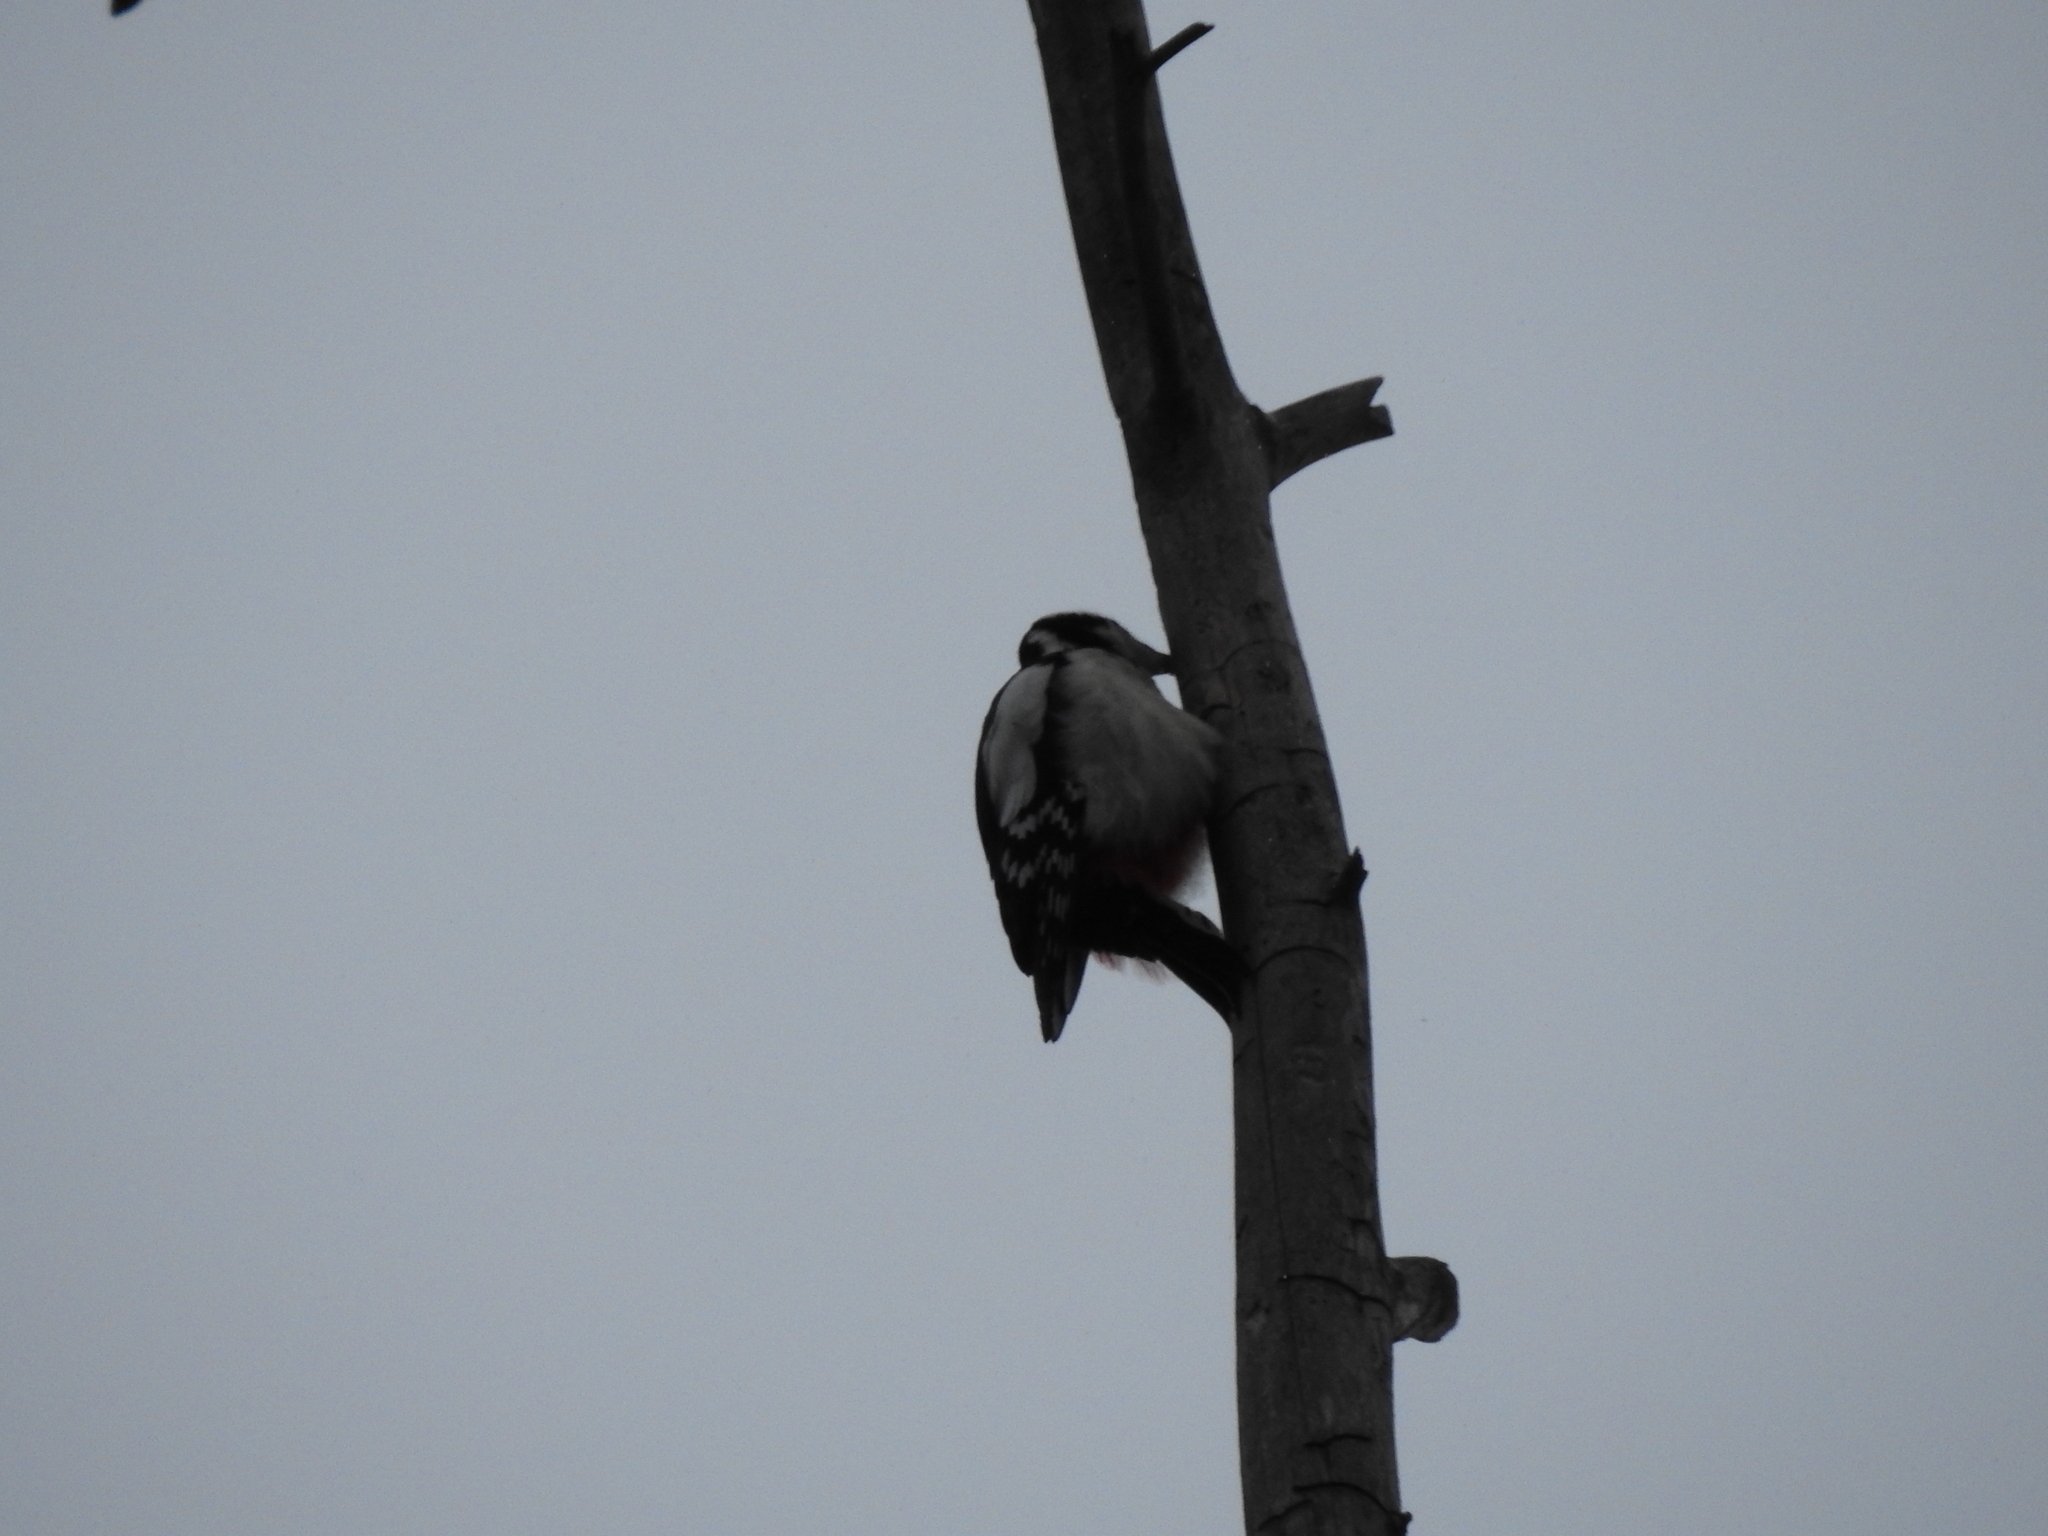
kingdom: Animalia
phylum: Chordata
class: Aves
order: Piciformes
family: Picidae
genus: Dendrocopos
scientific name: Dendrocopos major
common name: Great spotted woodpecker
